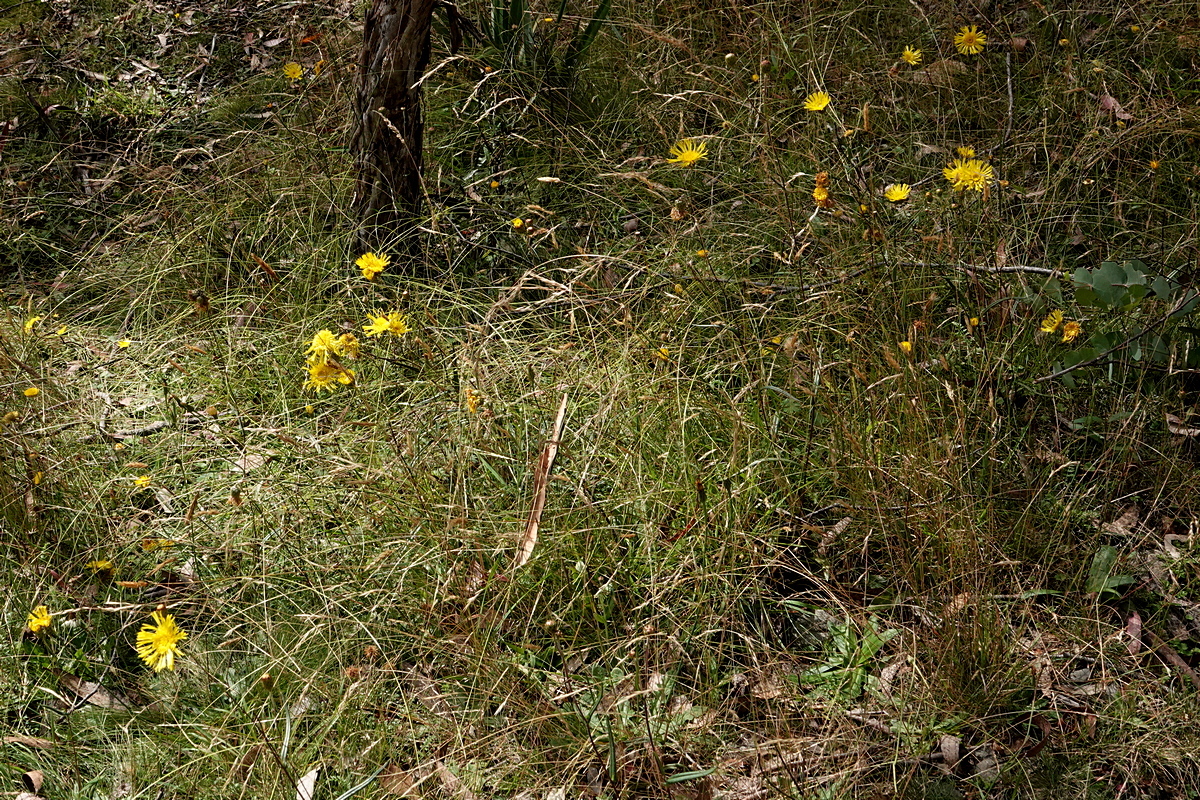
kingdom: Plantae
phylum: Tracheophyta
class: Magnoliopsida
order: Asterales
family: Asteraceae
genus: Podolepis
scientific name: Podolepis hieracioides
